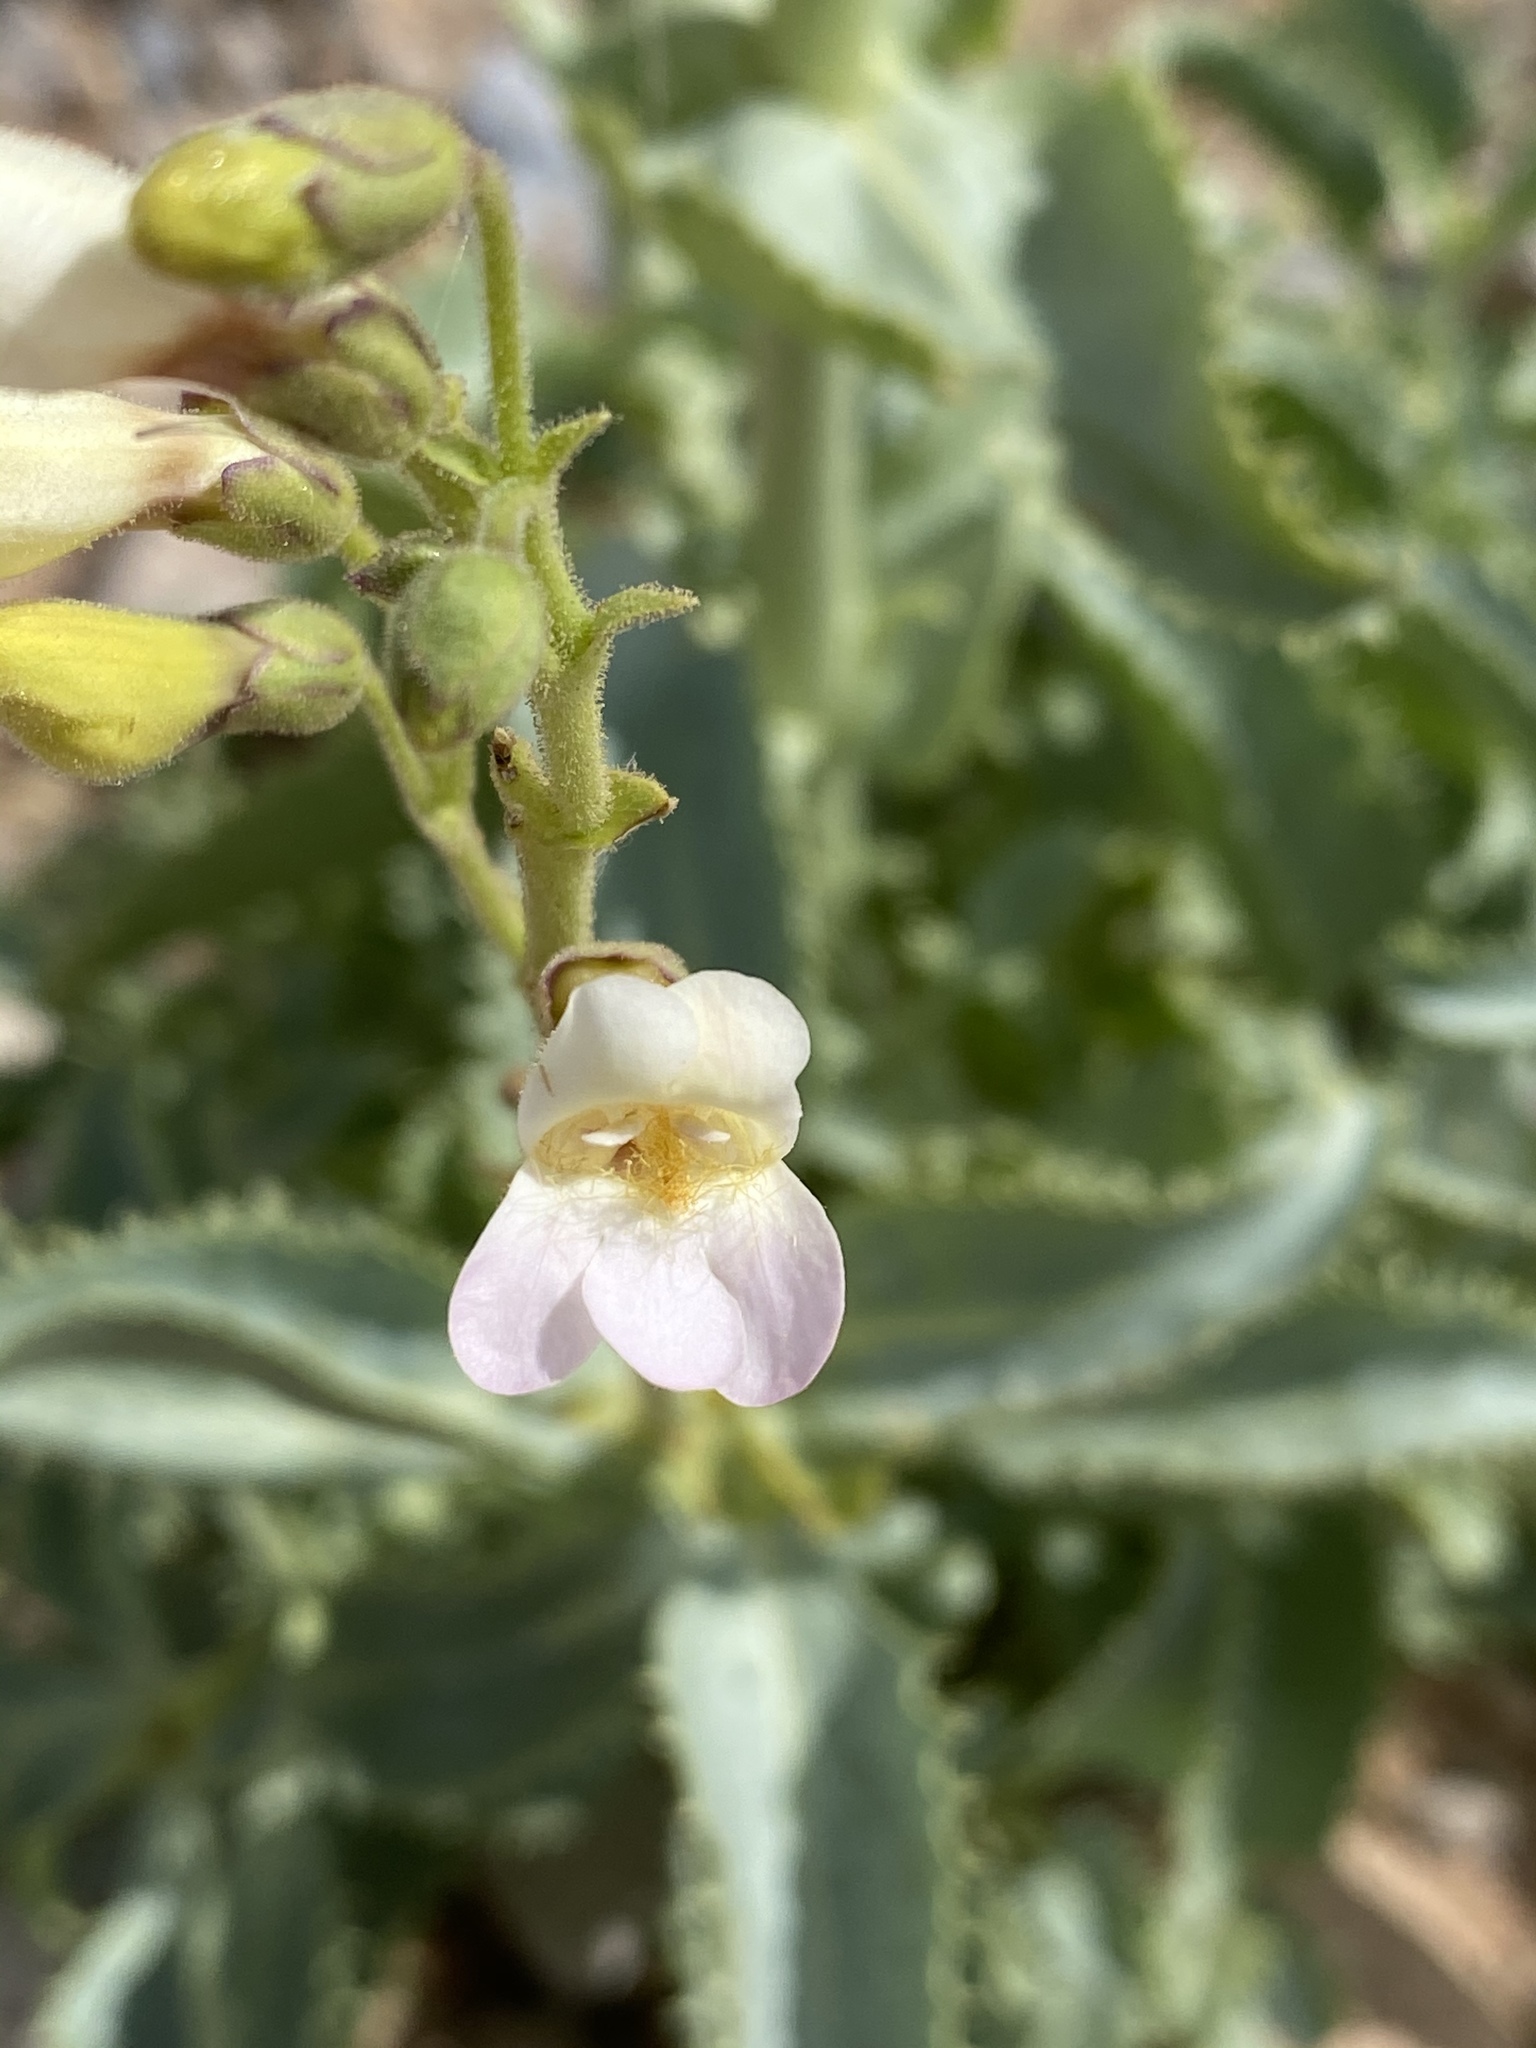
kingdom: Plantae
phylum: Tracheophyta
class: Magnoliopsida
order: Lamiales
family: Plantaginaceae
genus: Penstemon
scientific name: Penstemon bicolor
